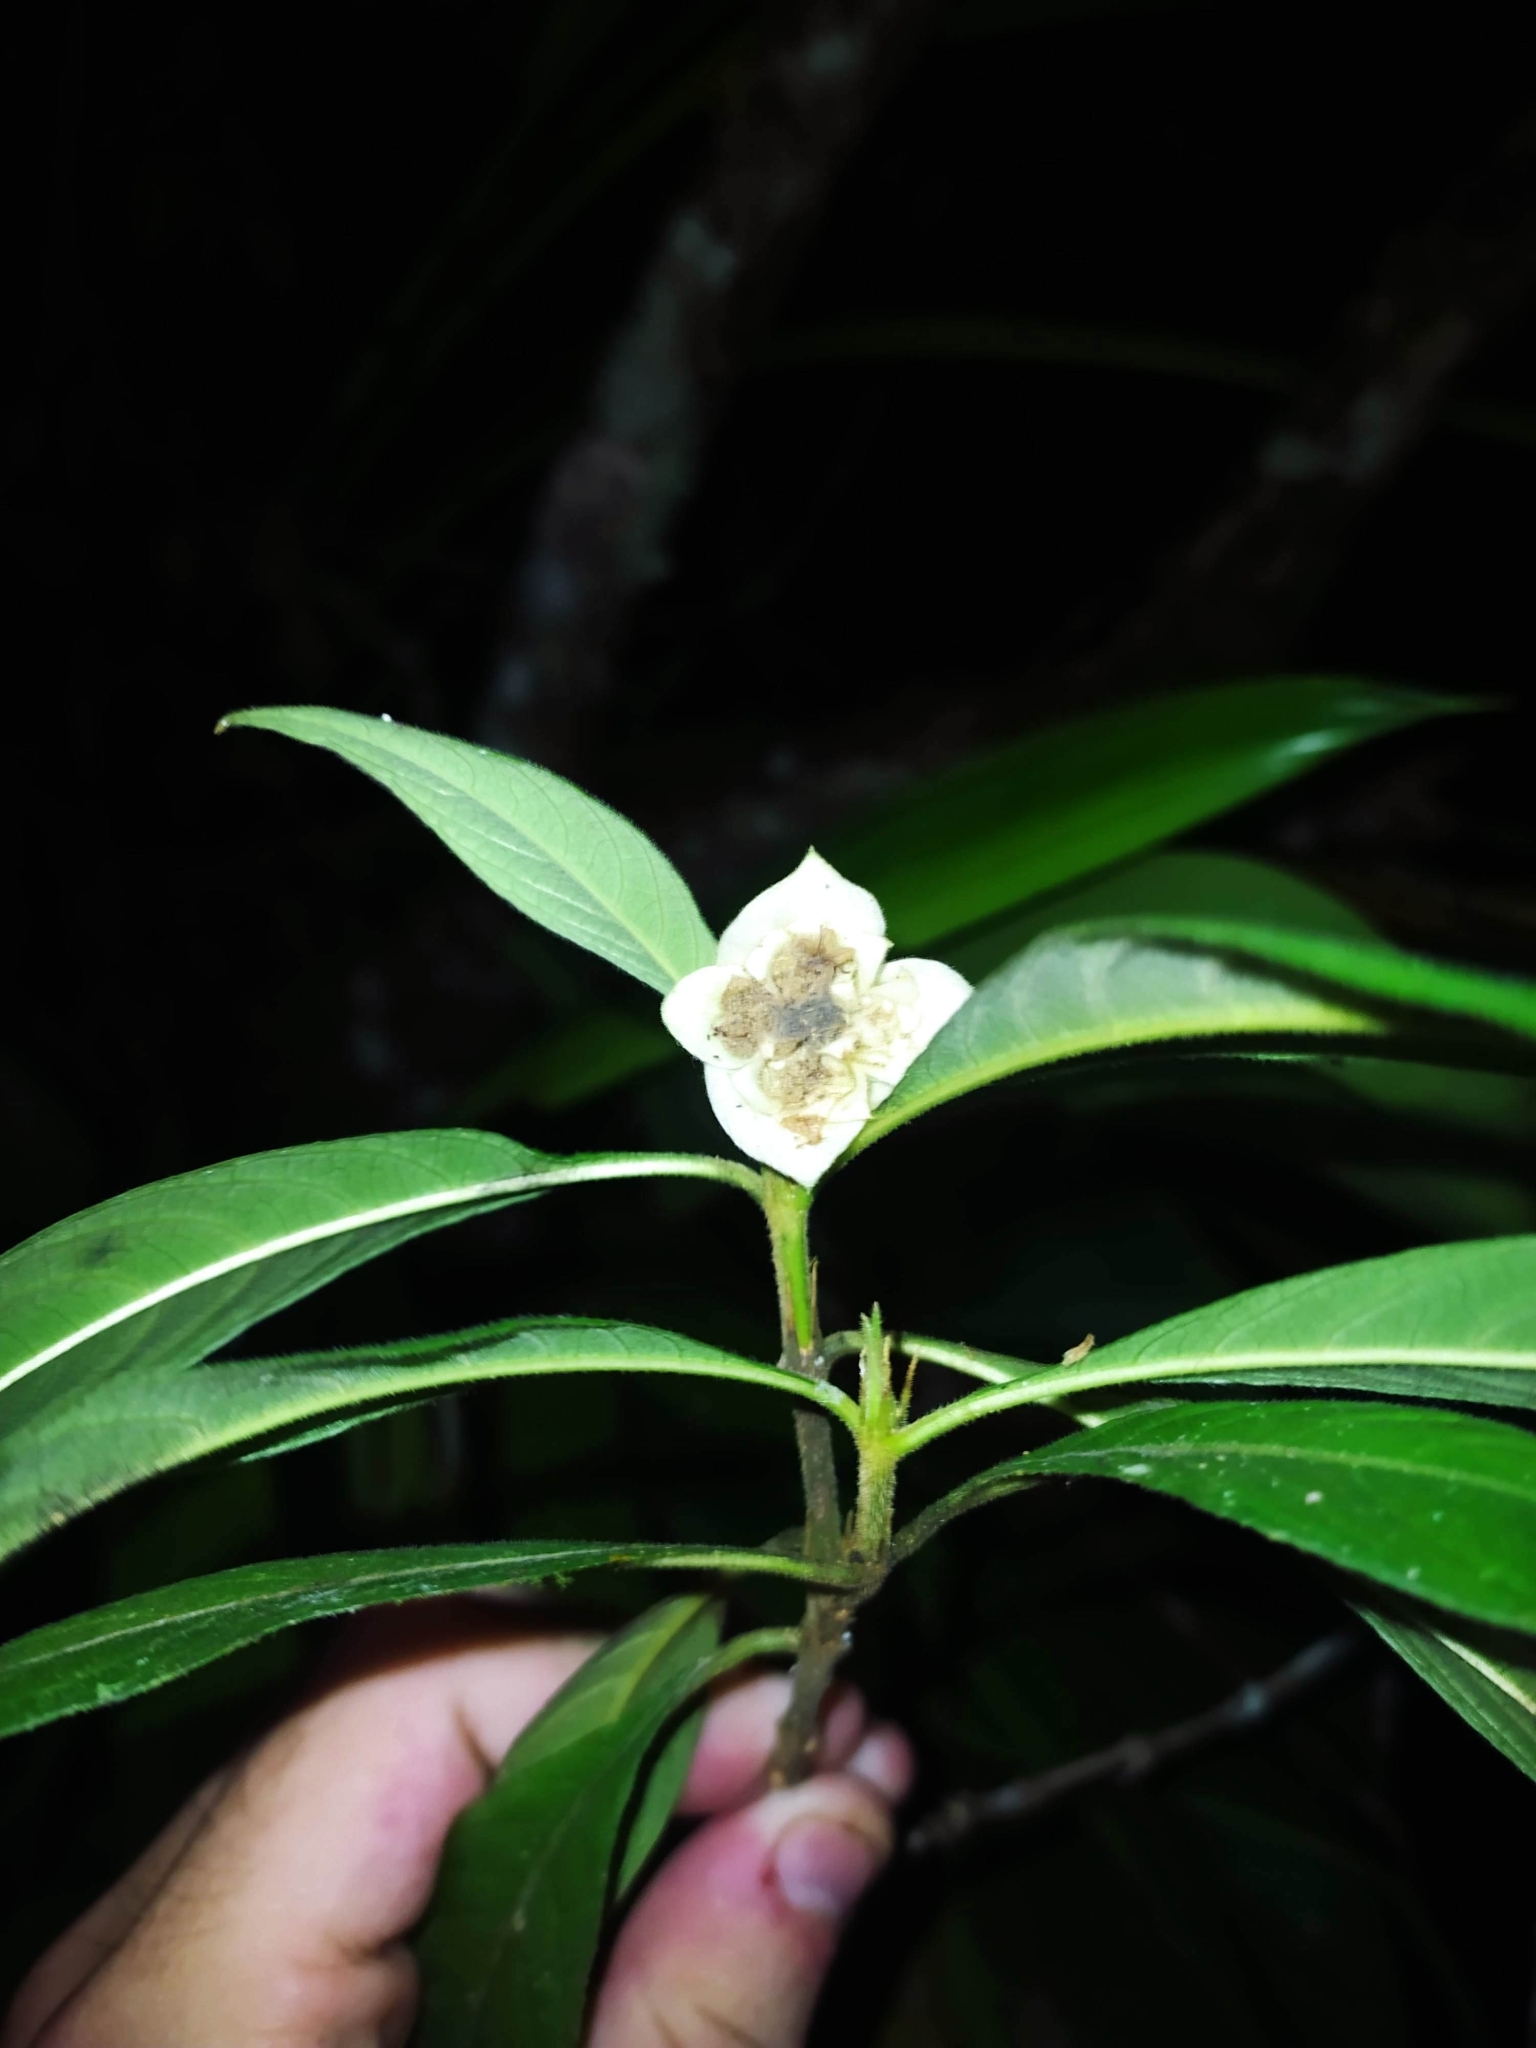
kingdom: Plantae
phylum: Tracheophyta
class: Magnoliopsida
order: Gentianales
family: Rubiaceae
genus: Palicourea
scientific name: Palicourea bracteocardia
